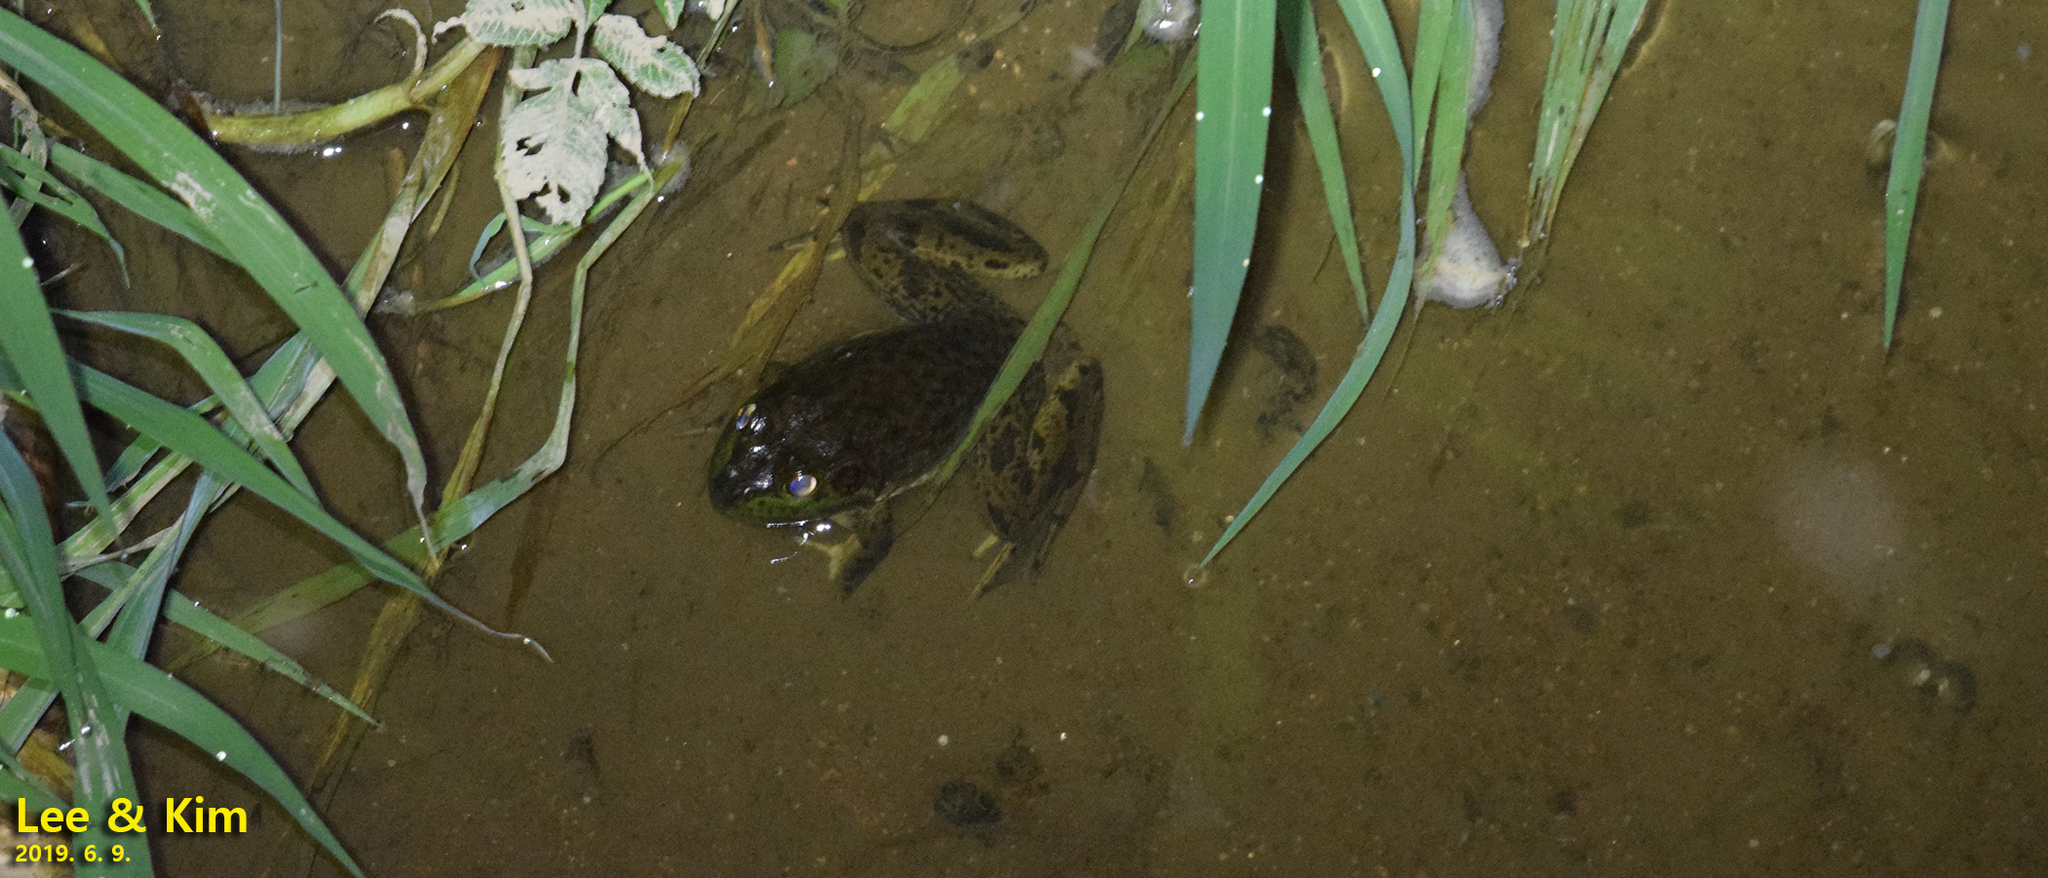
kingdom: Animalia
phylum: Chordata
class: Amphibia
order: Anura
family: Ranidae
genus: Lithobates
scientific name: Lithobates catesbeianus
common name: American bullfrog
